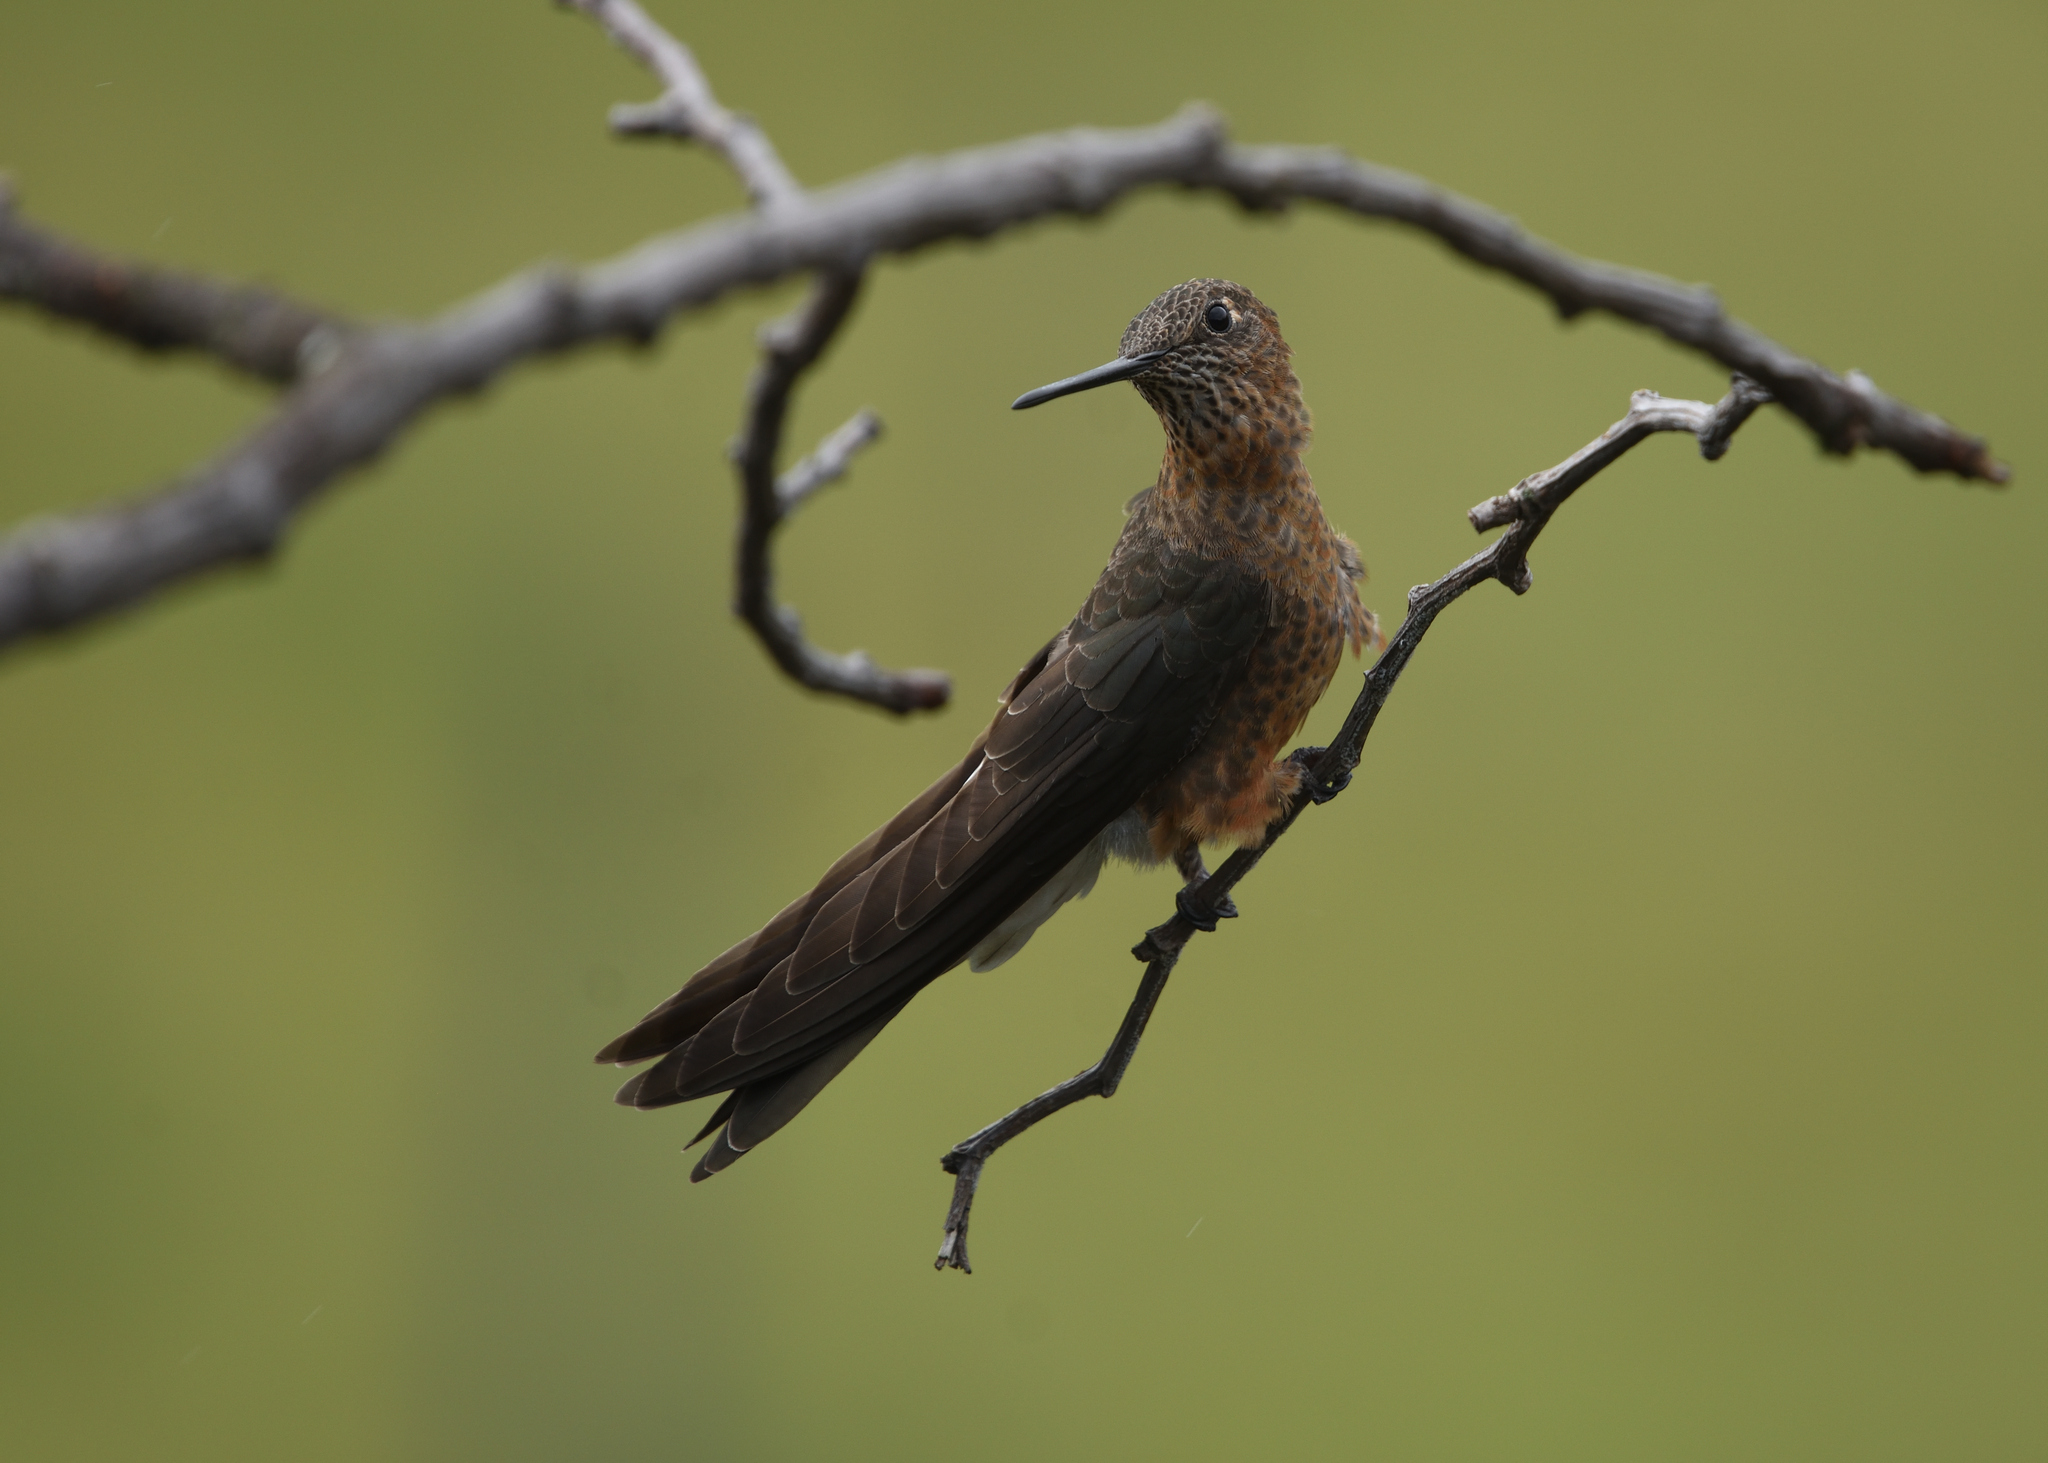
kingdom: Animalia
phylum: Chordata
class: Aves
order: Apodiformes
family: Trochilidae
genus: Patagona
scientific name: Patagona gigas
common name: Giant hummingbird
